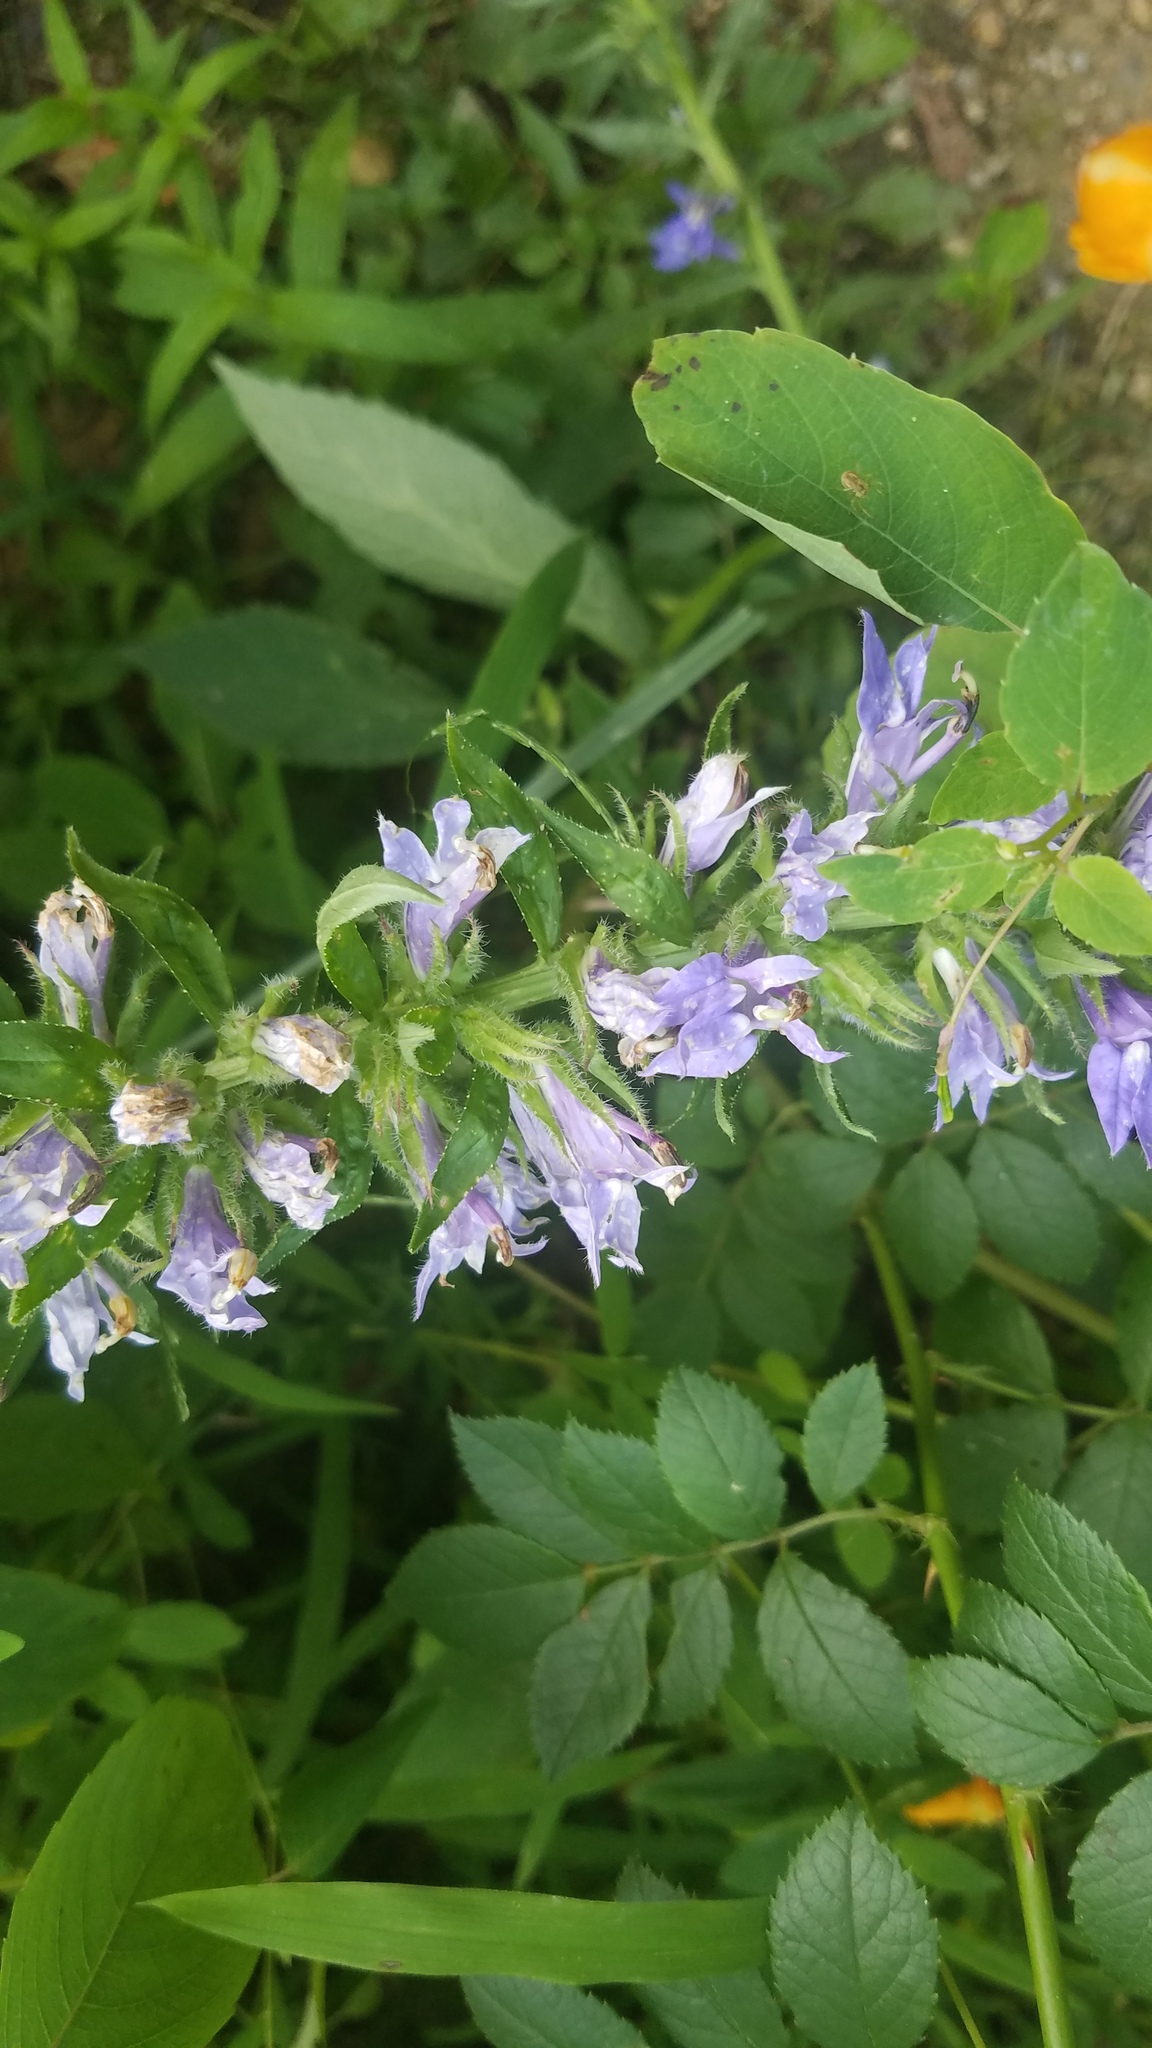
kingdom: Plantae
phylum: Tracheophyta
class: Magnoliopsida
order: Asterales
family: Campanulaceae
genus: Lobelia
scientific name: Lobelia siphilitica
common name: Great lobelia
